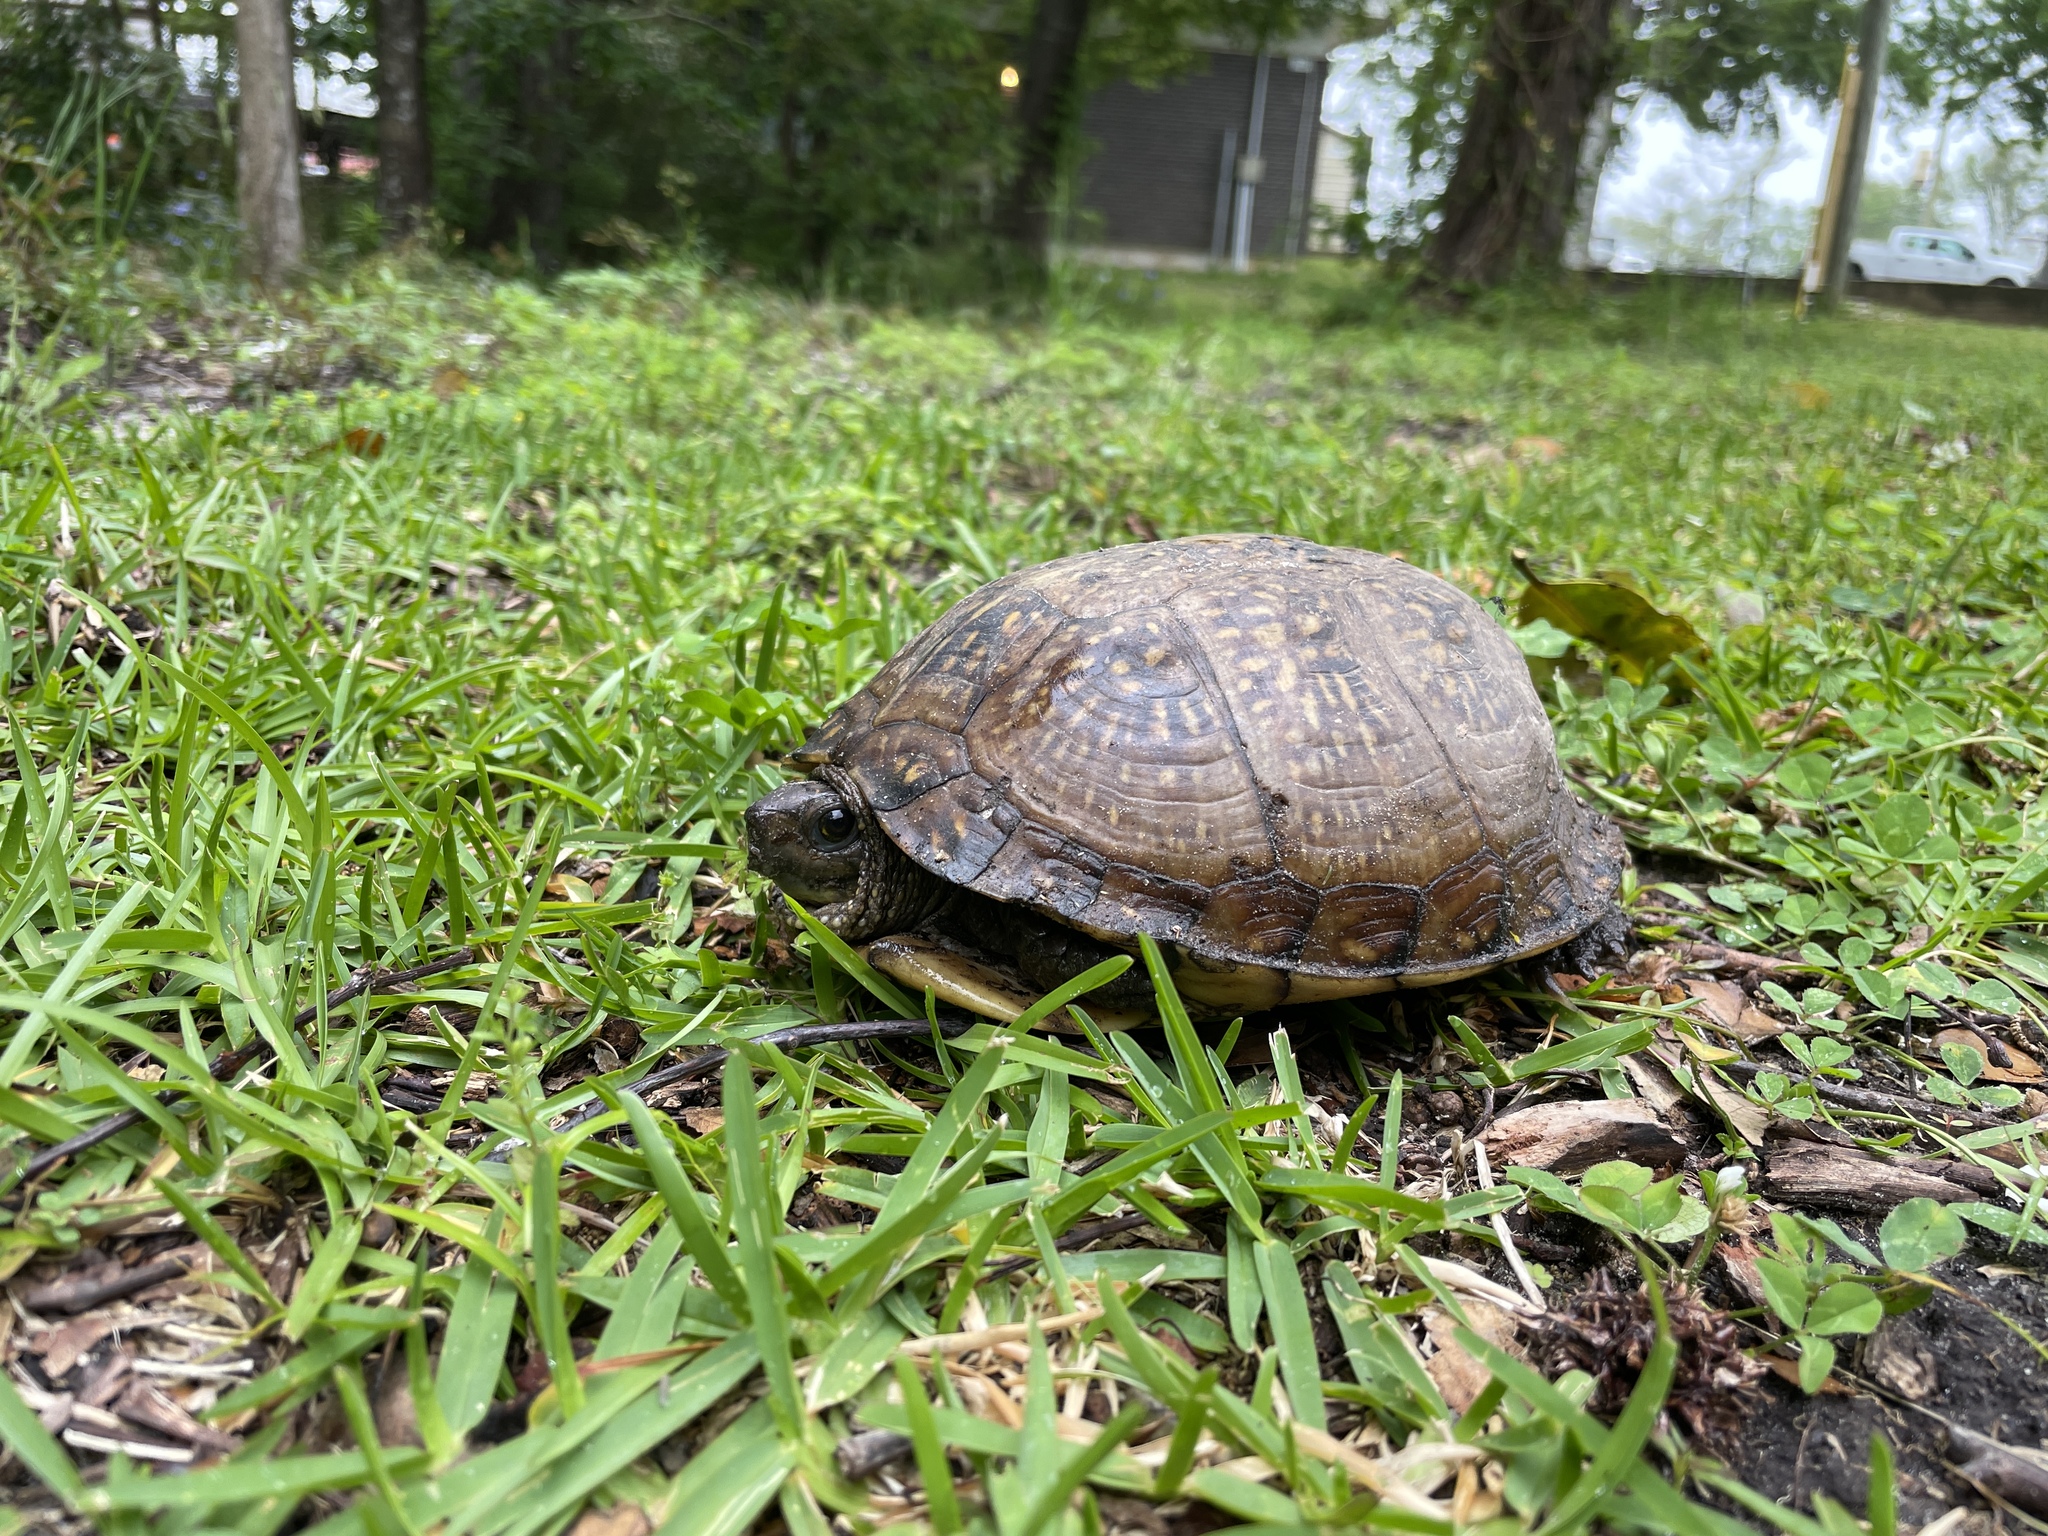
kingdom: Animalia
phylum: Chordata
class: Testudines
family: Emydidae
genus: Terrapene
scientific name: Terrapene carolina
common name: Common box turtle
